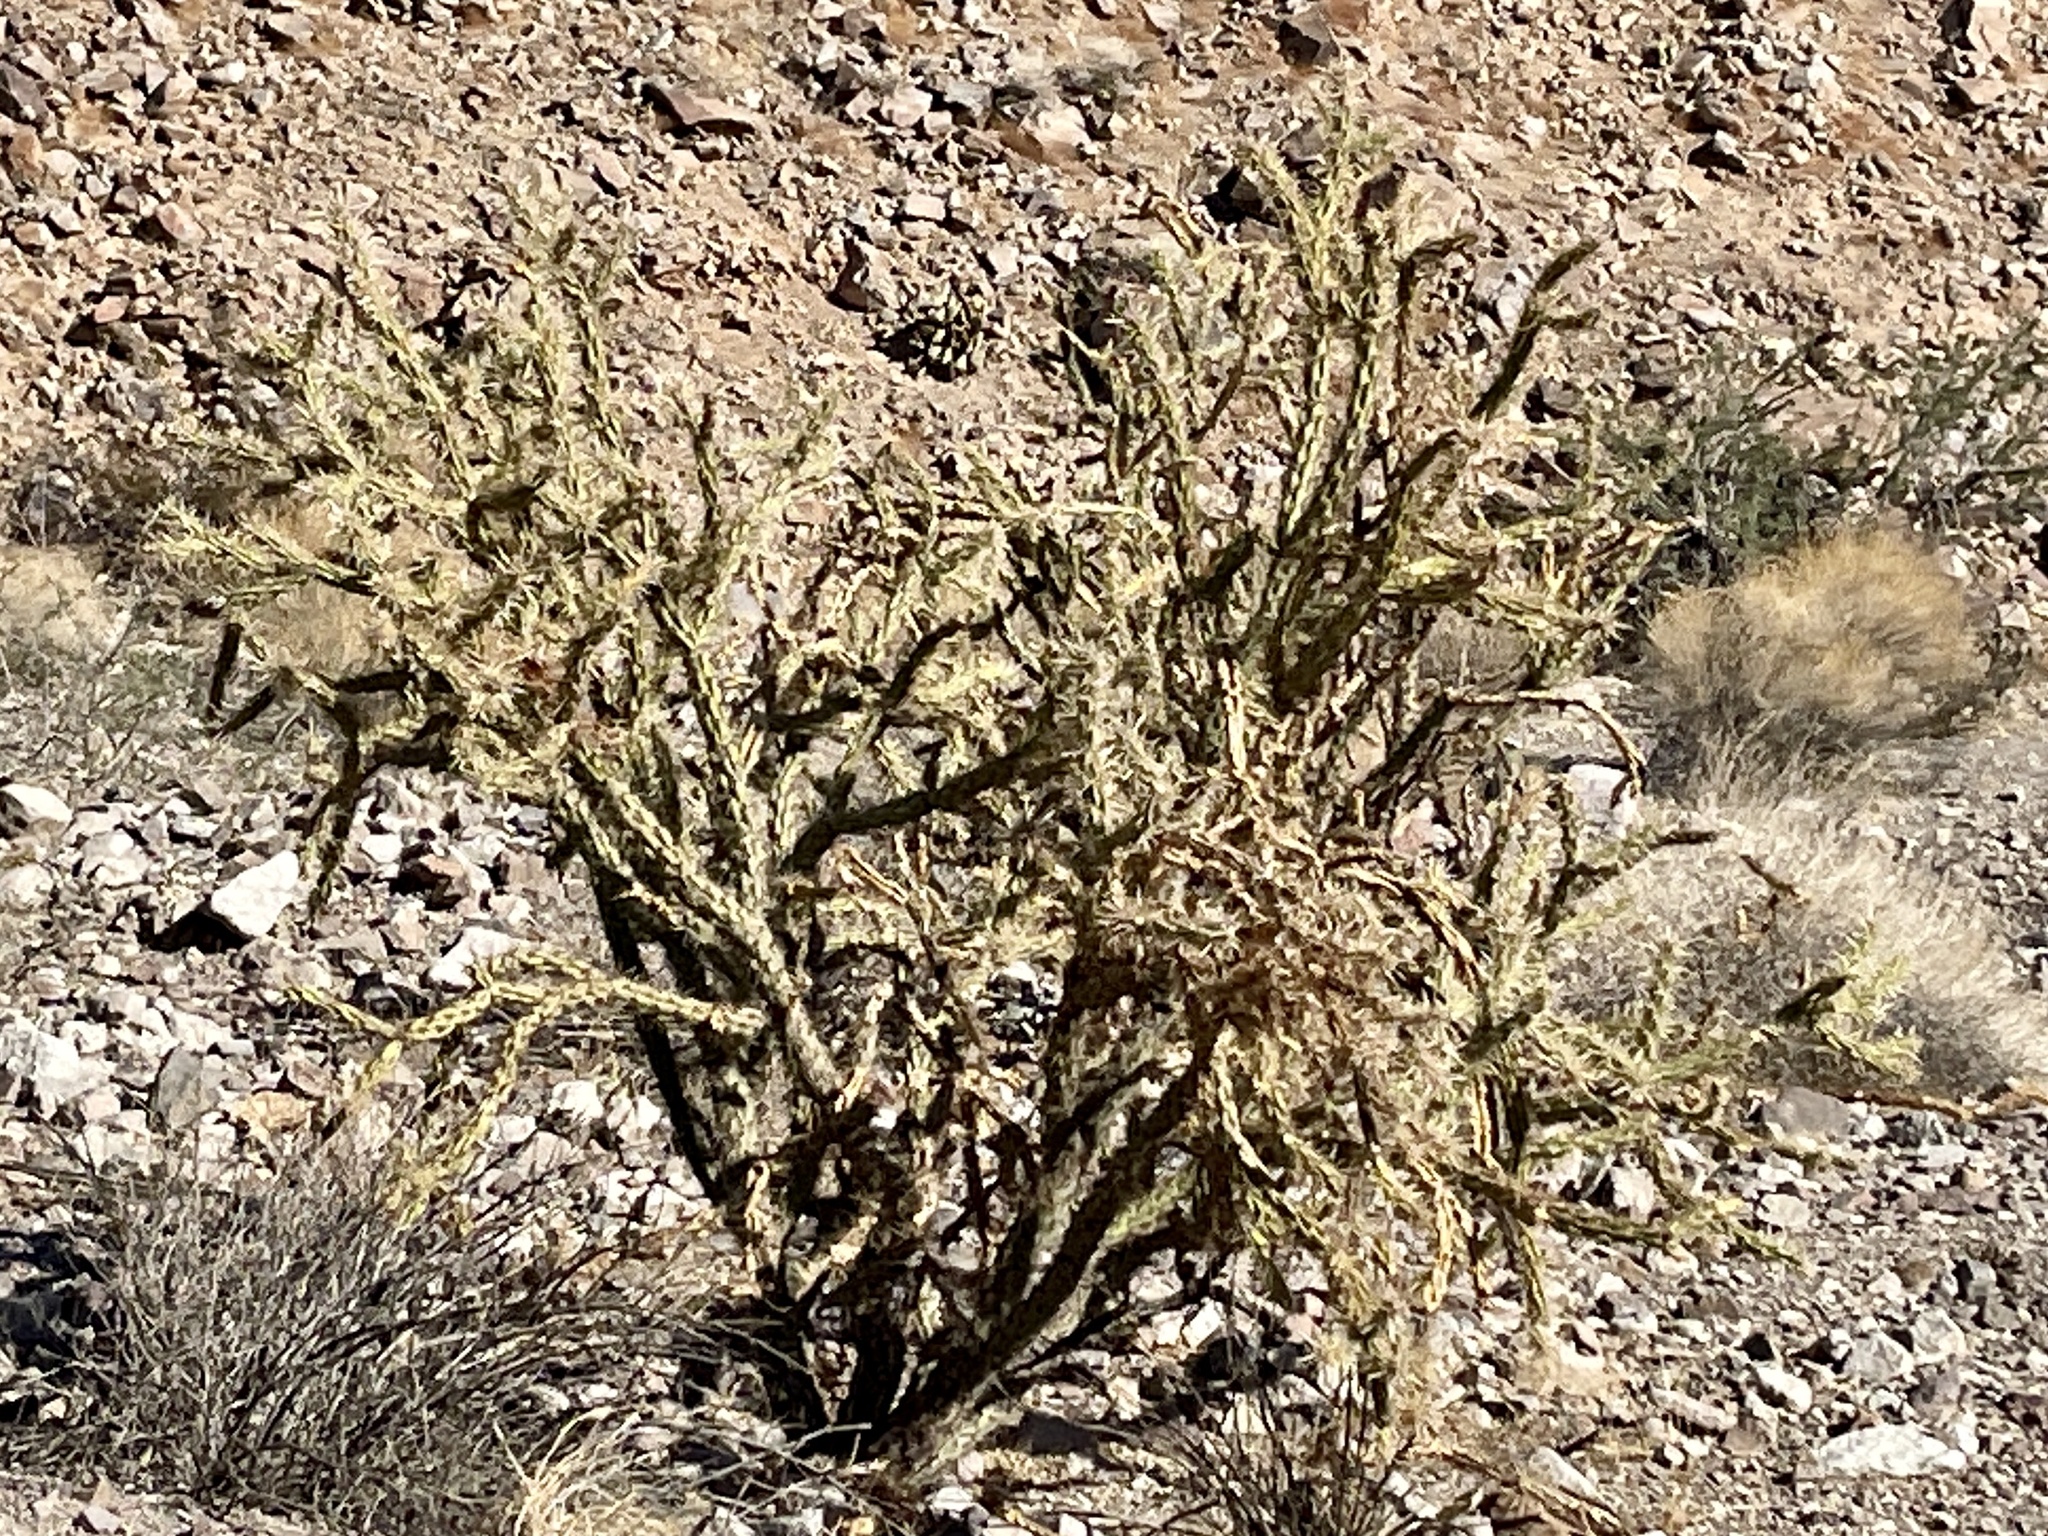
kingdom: Plantae
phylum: Tracheophyta
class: Magnoliopsida
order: Caryophyllales
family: Cactaceae
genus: Cylindropuntia
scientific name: Cylindropuntia acanthocarpa
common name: Buckhorn cholla
